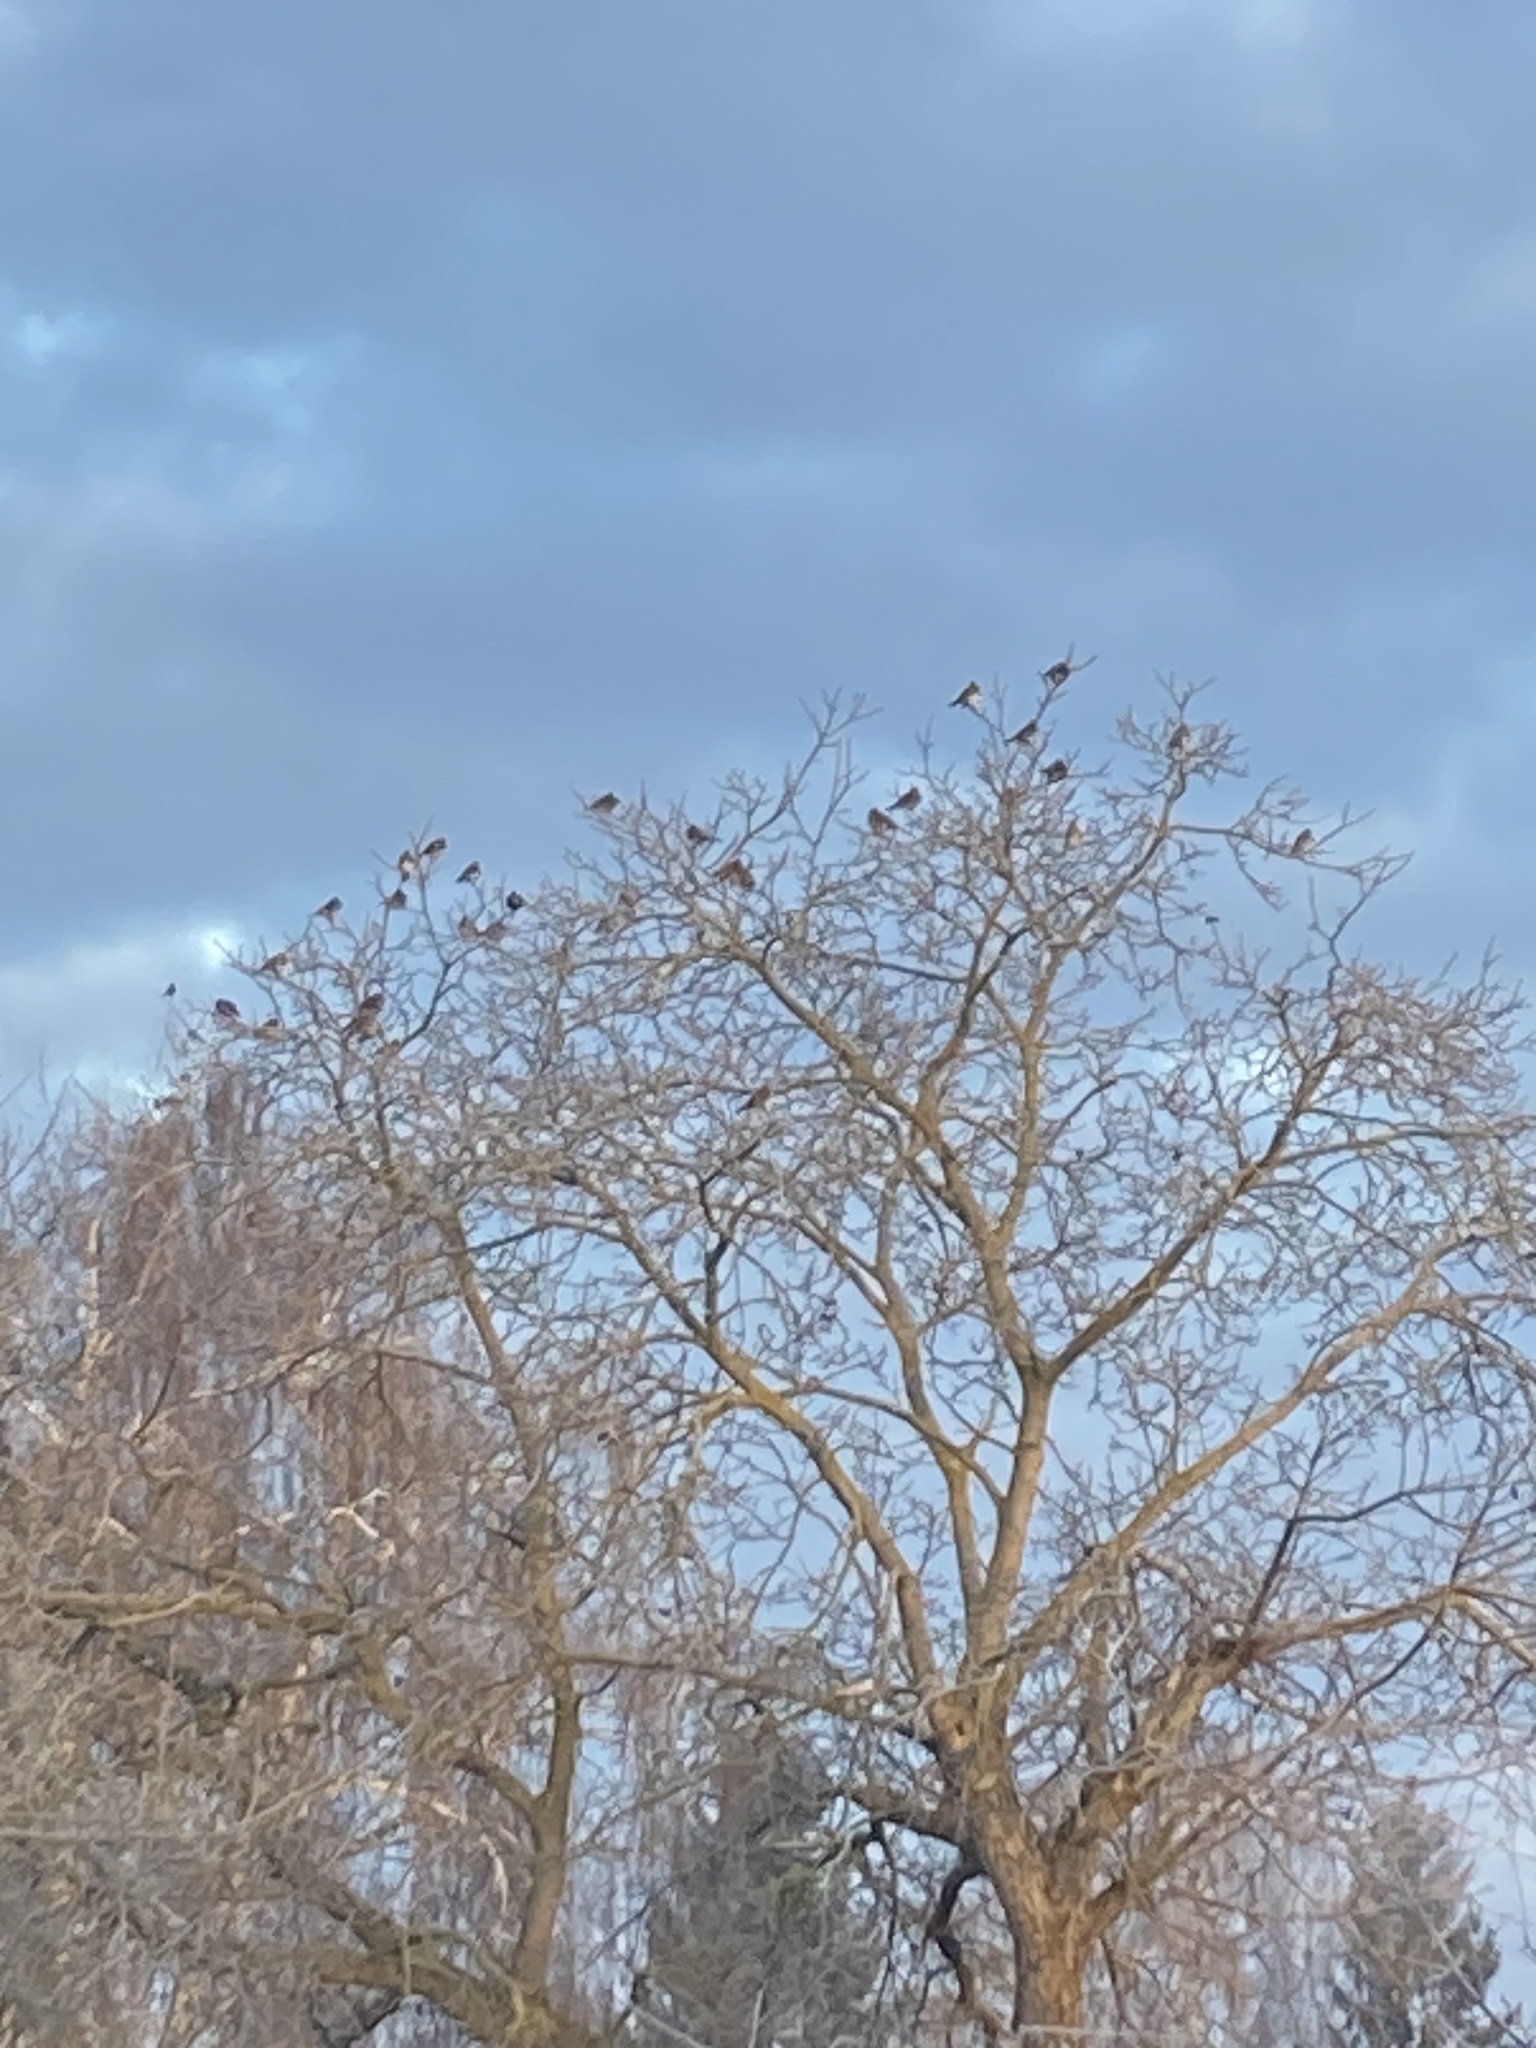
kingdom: Animalia
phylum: Chordata
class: Aves
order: Passeriformes
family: Turdidae
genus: Turdus
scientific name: Turdus pilaris
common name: Fieldfare
